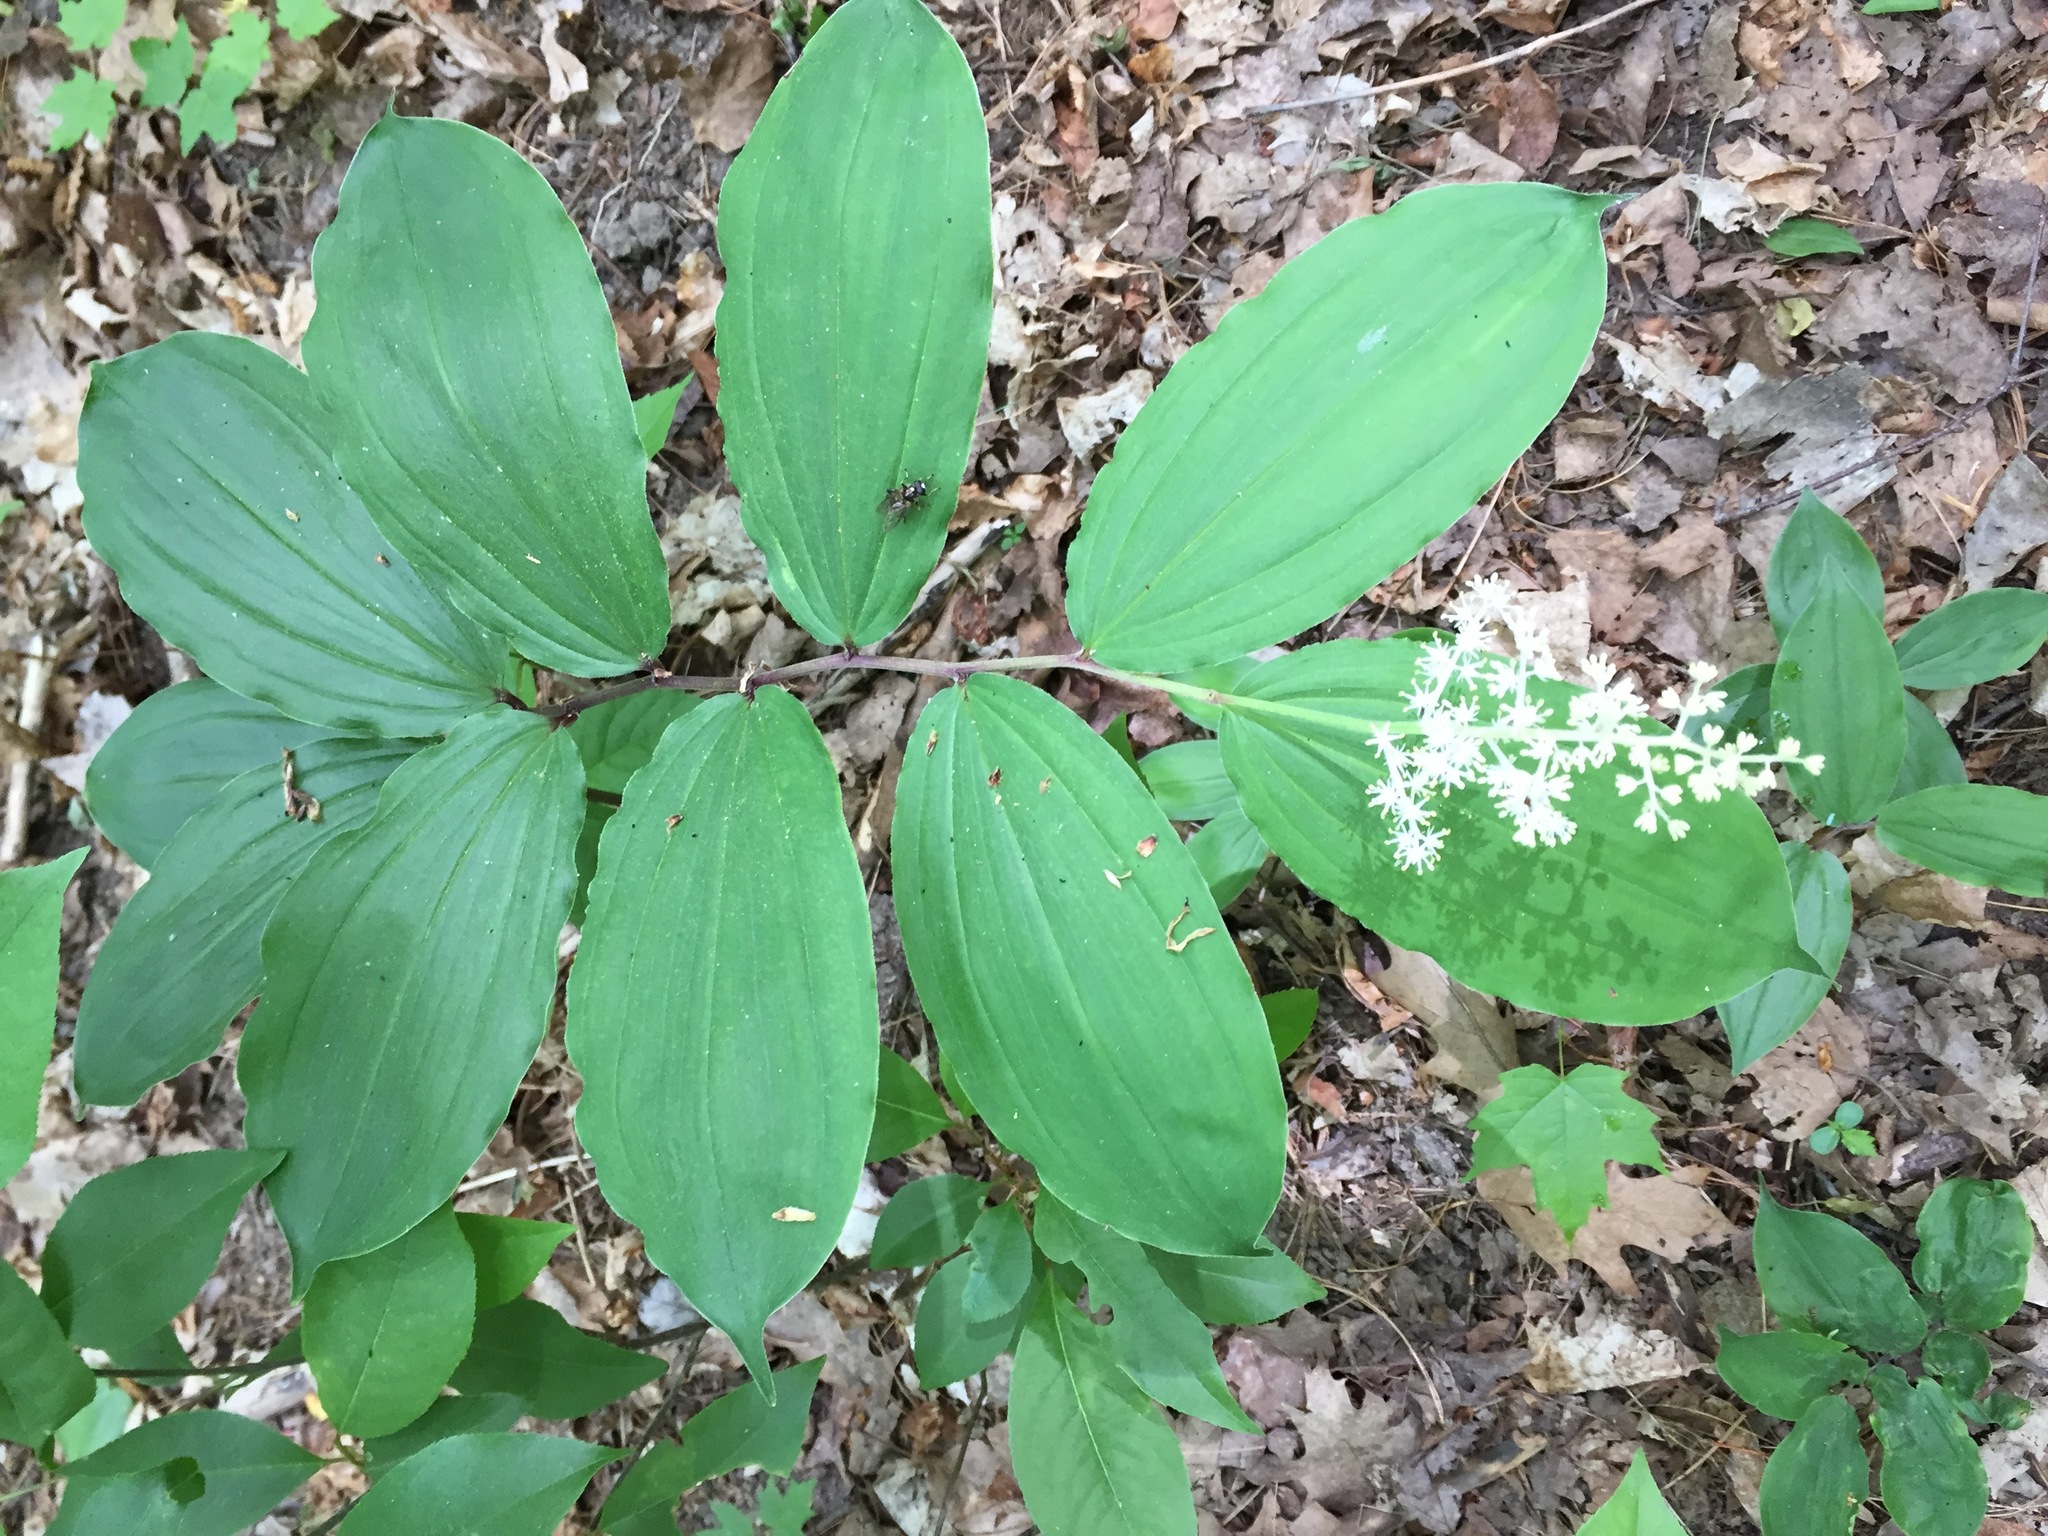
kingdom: Plantae
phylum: Tracheophyta
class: Liliopsida
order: Asparagales
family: Asparagaceae
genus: Maianthemum
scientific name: Maianthemum racemosum
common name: False spikenard
